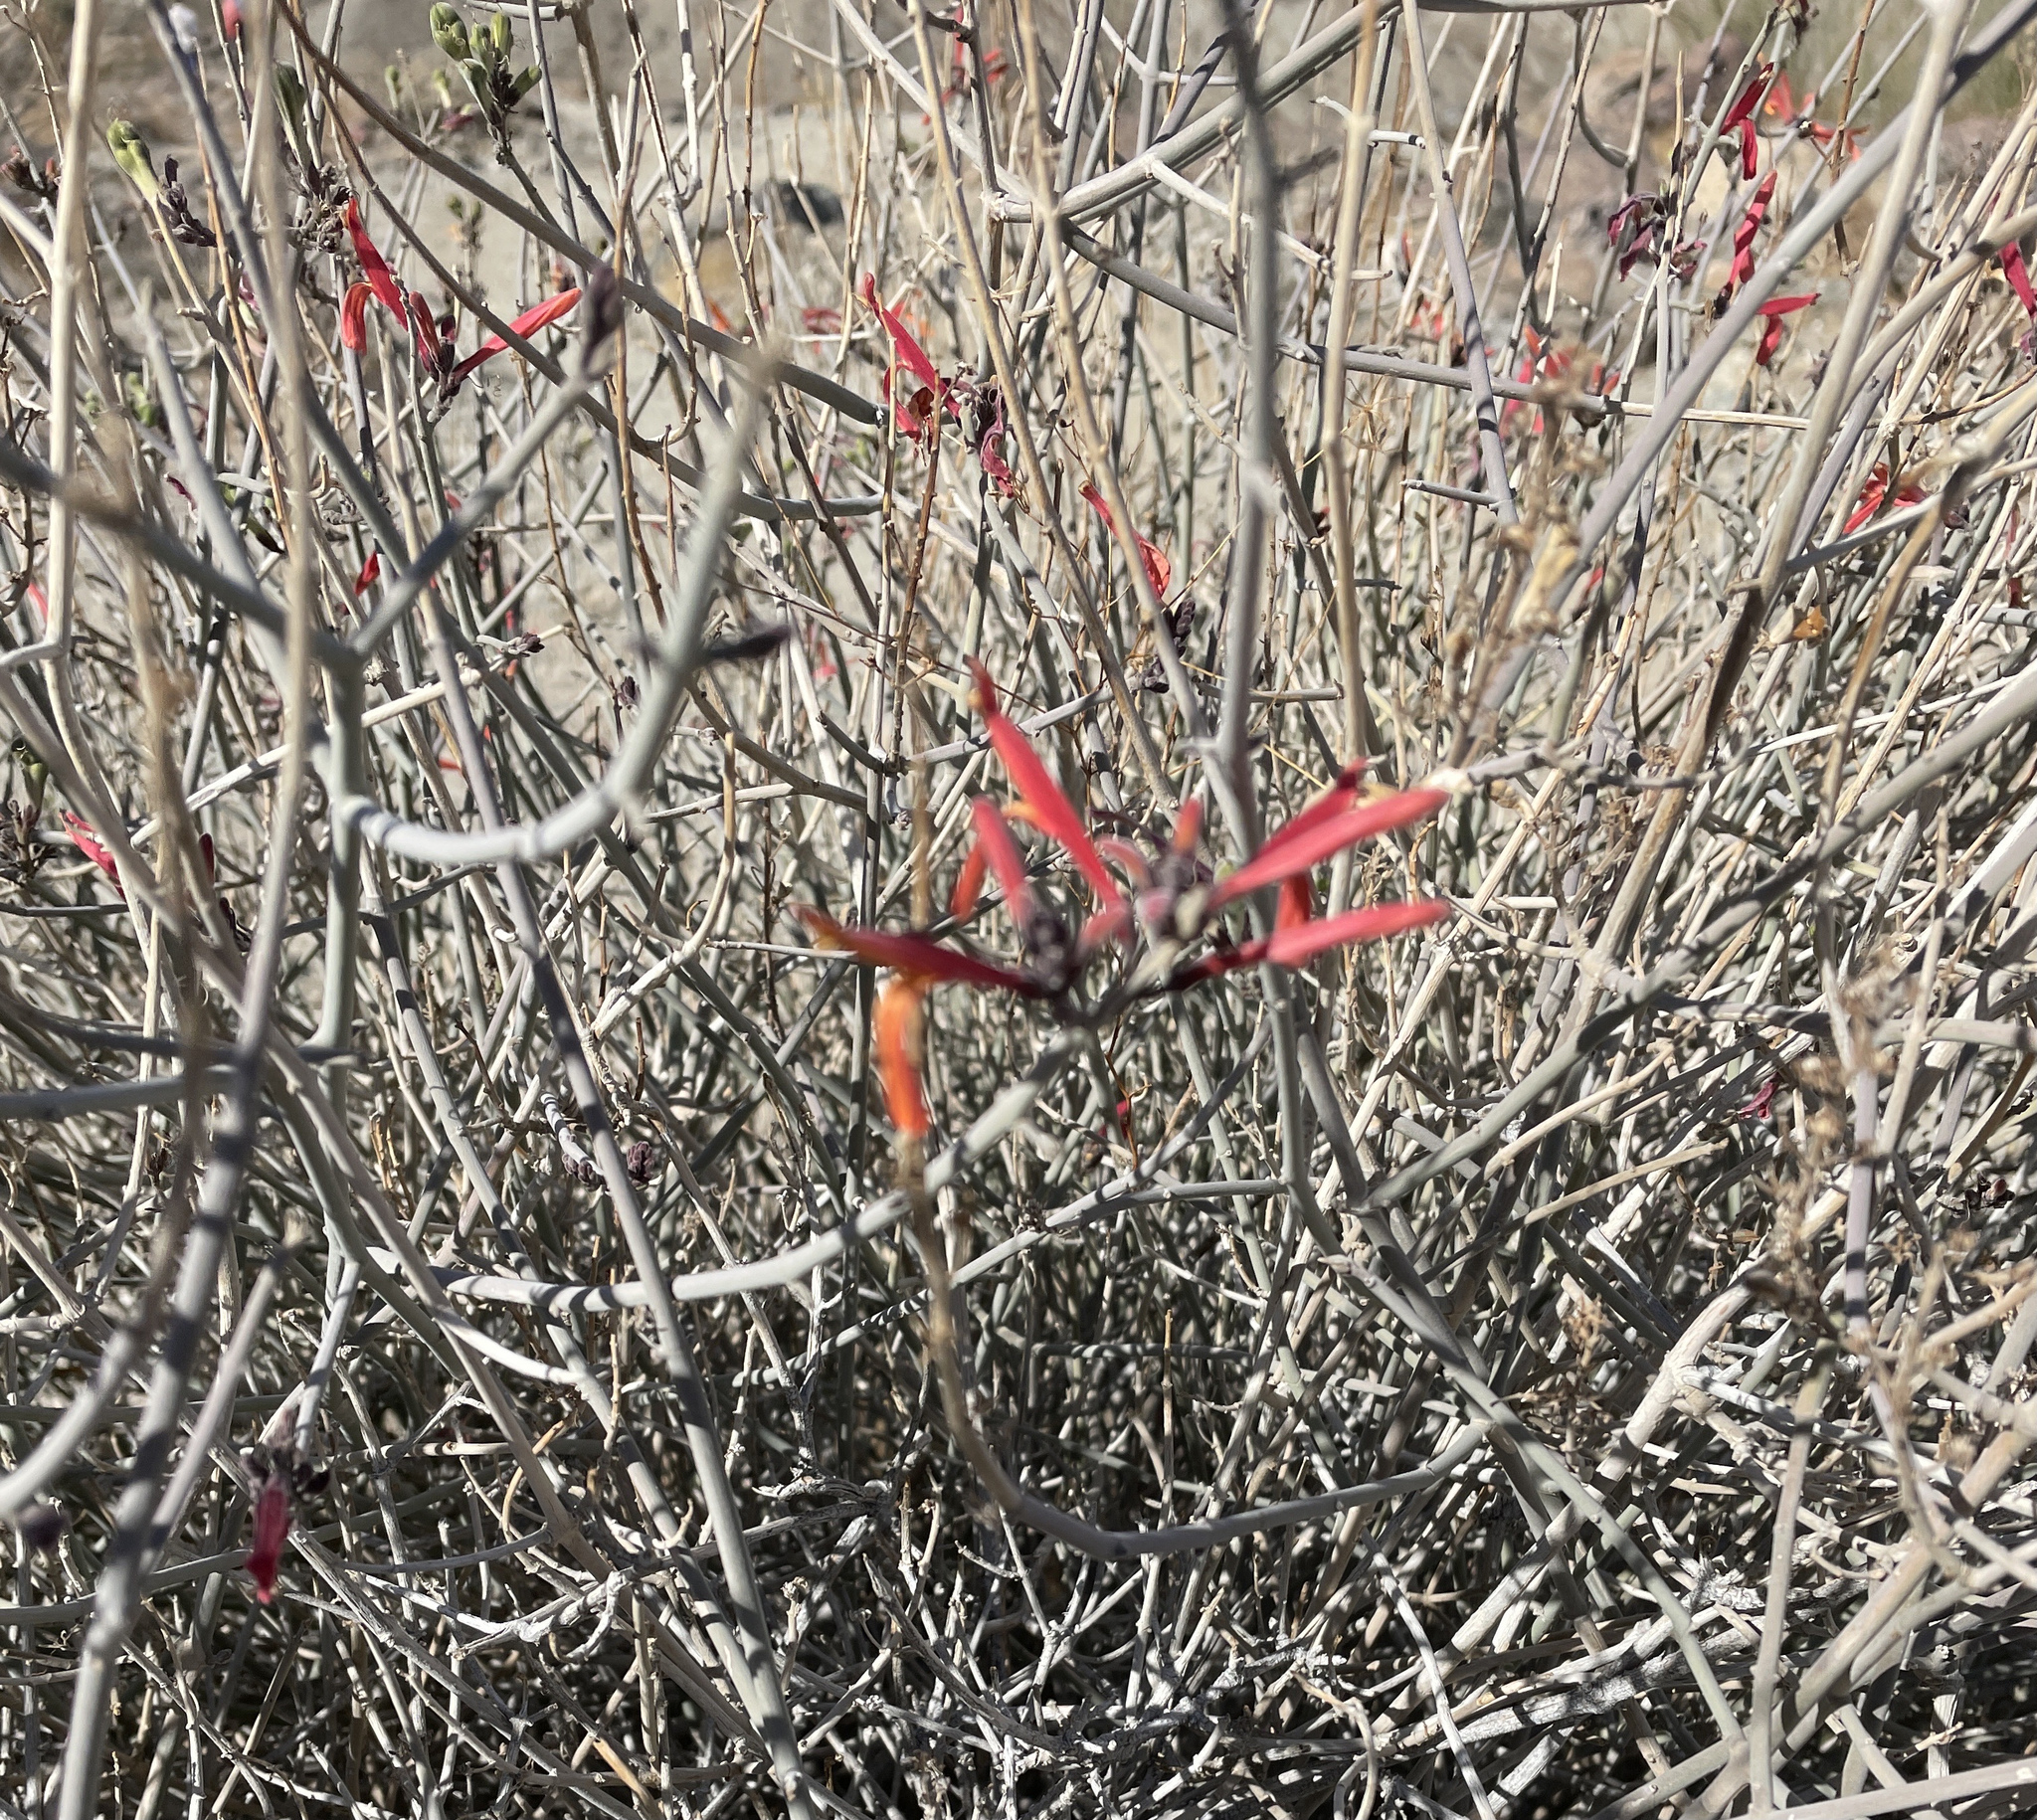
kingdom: Plantae
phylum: Tracheophyta
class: Magnoliopsida
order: Lamiales
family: Acanthaceae
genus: Justicia
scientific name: Justicia californica
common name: Chuparosa-honeysuckle
